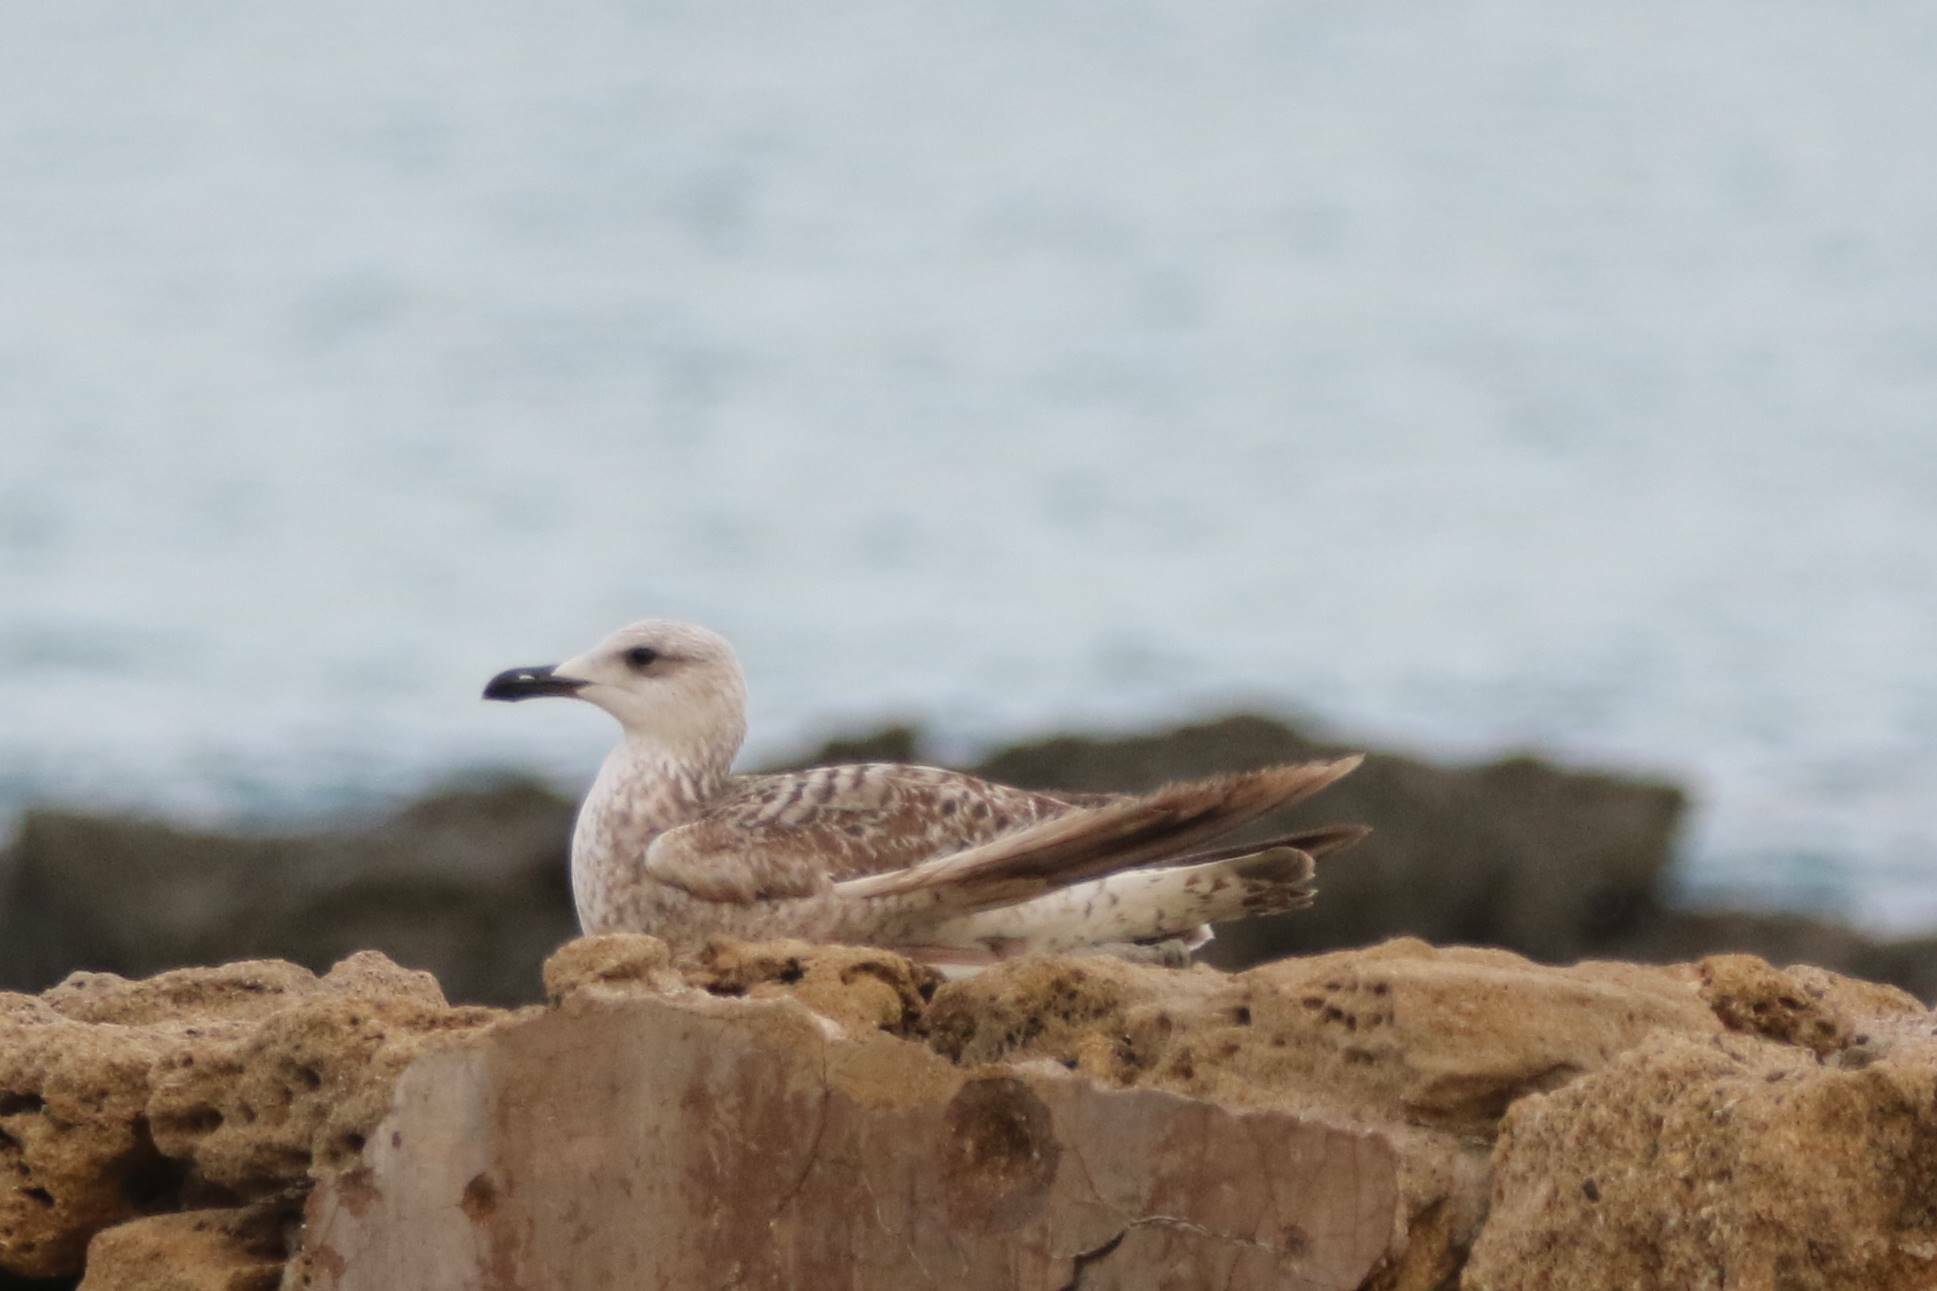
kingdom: Animalia
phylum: Chordata
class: Aves
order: Charadriiformes
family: Laridae
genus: Larus
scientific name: Larus michahellis
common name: Yellow-legged gull
